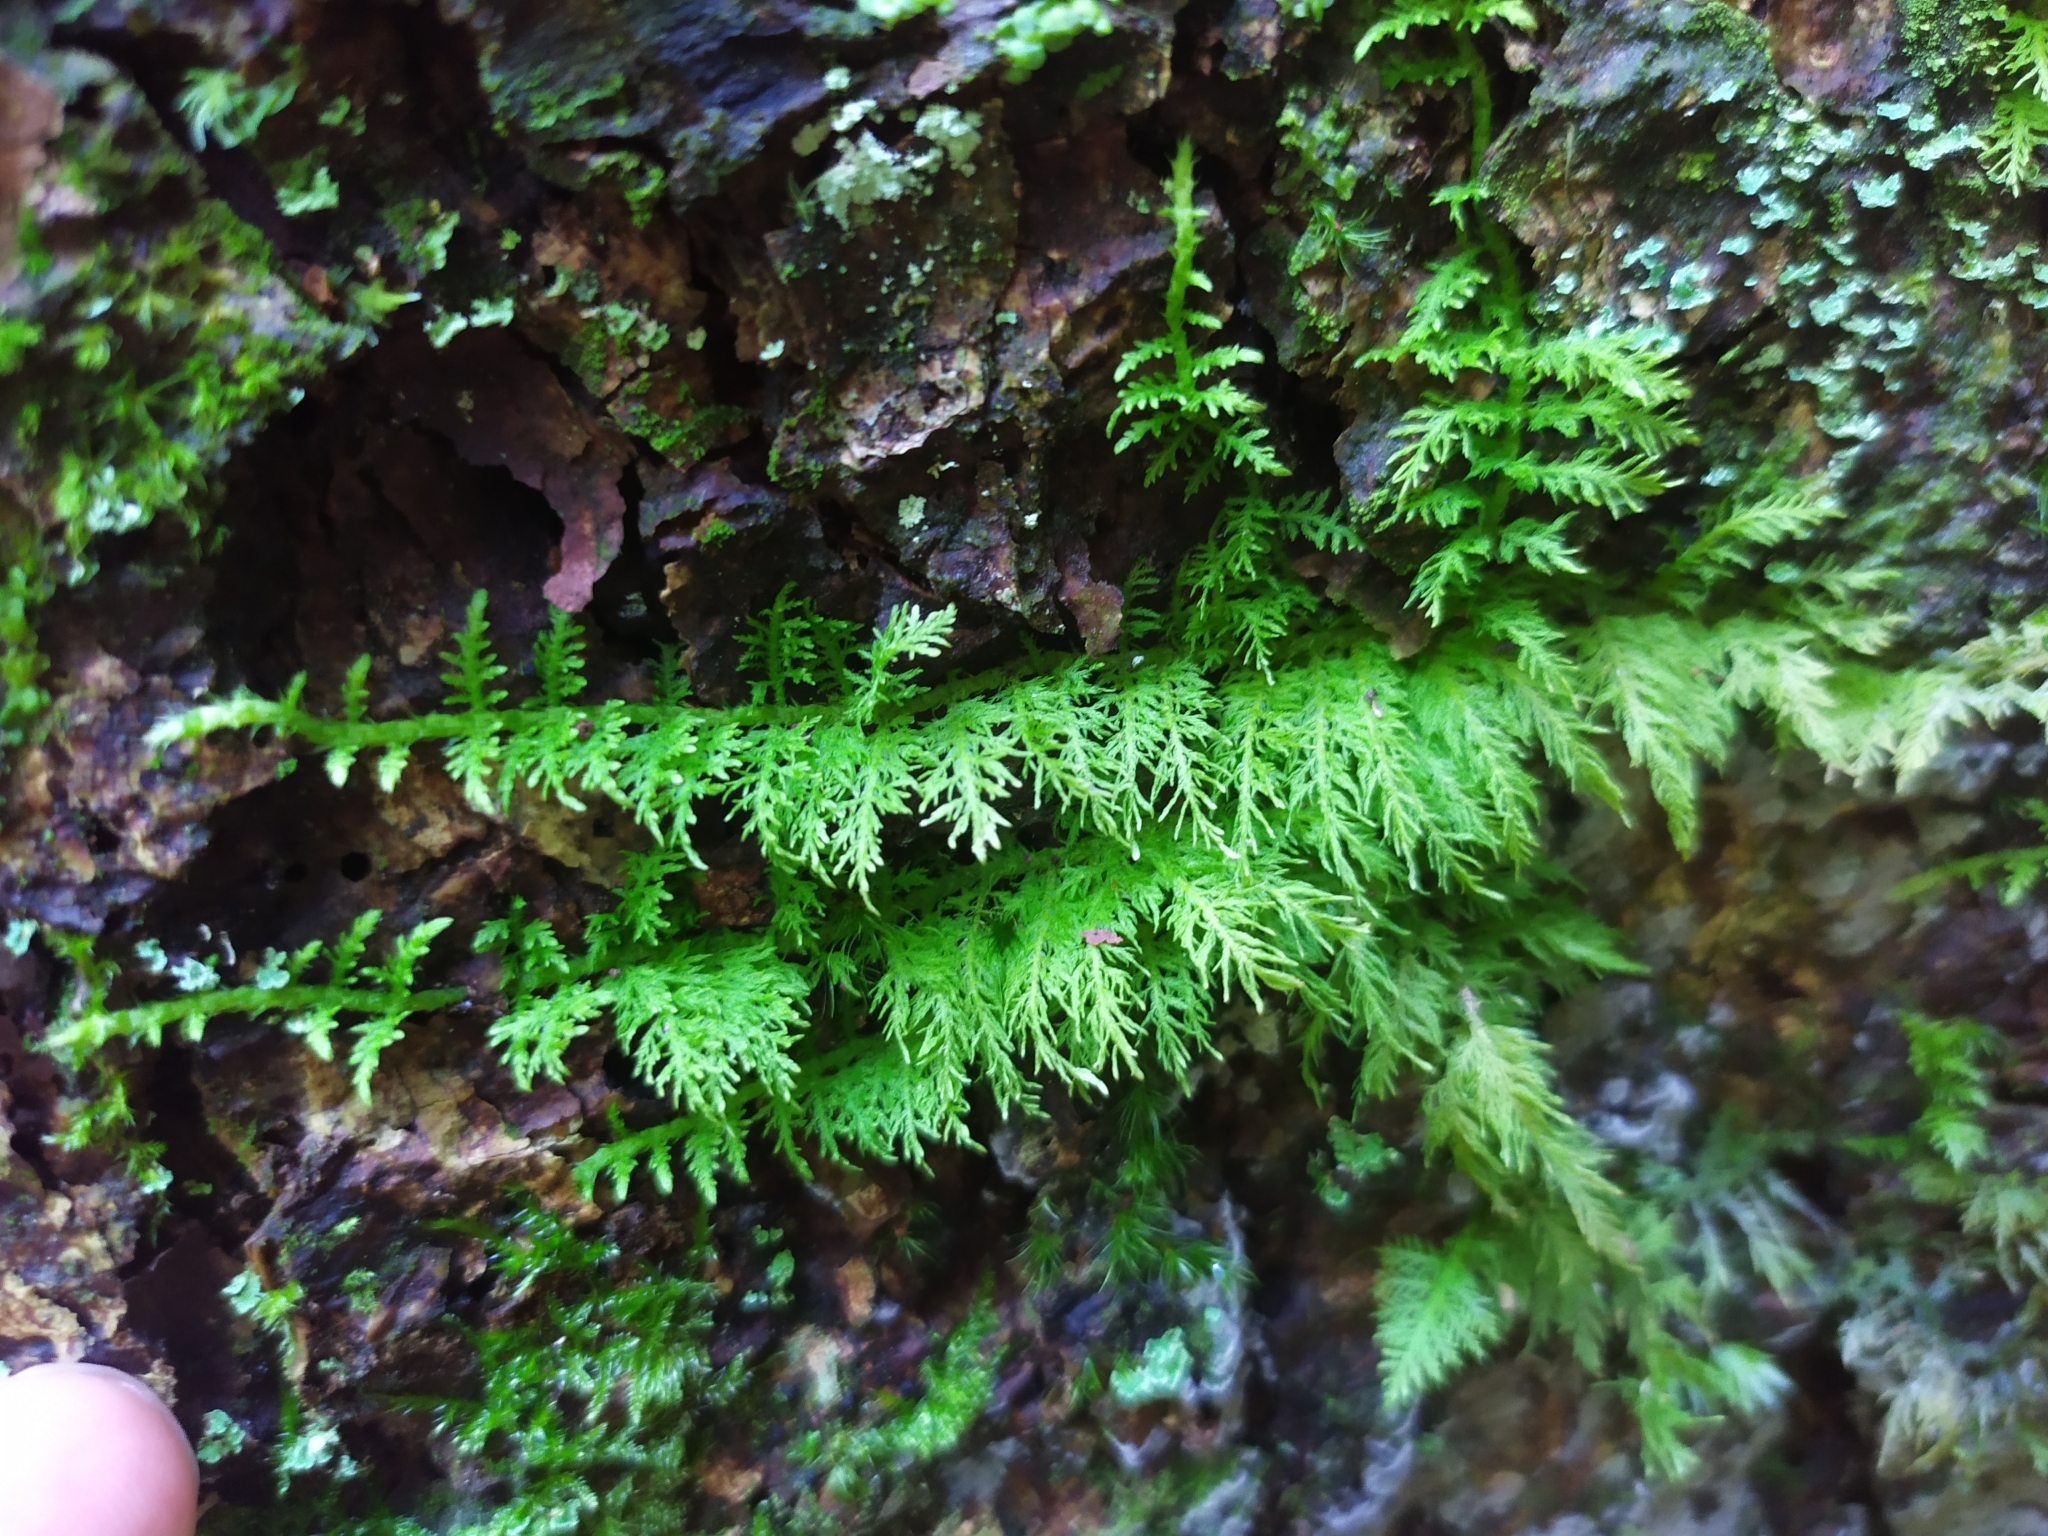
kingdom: Plantae
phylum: Bryophyta
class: Bryopsida
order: Hypnales
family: Thuidiaceae
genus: Thuidium
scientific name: Thuidium tamariscinum
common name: Common tamarisk-moss
